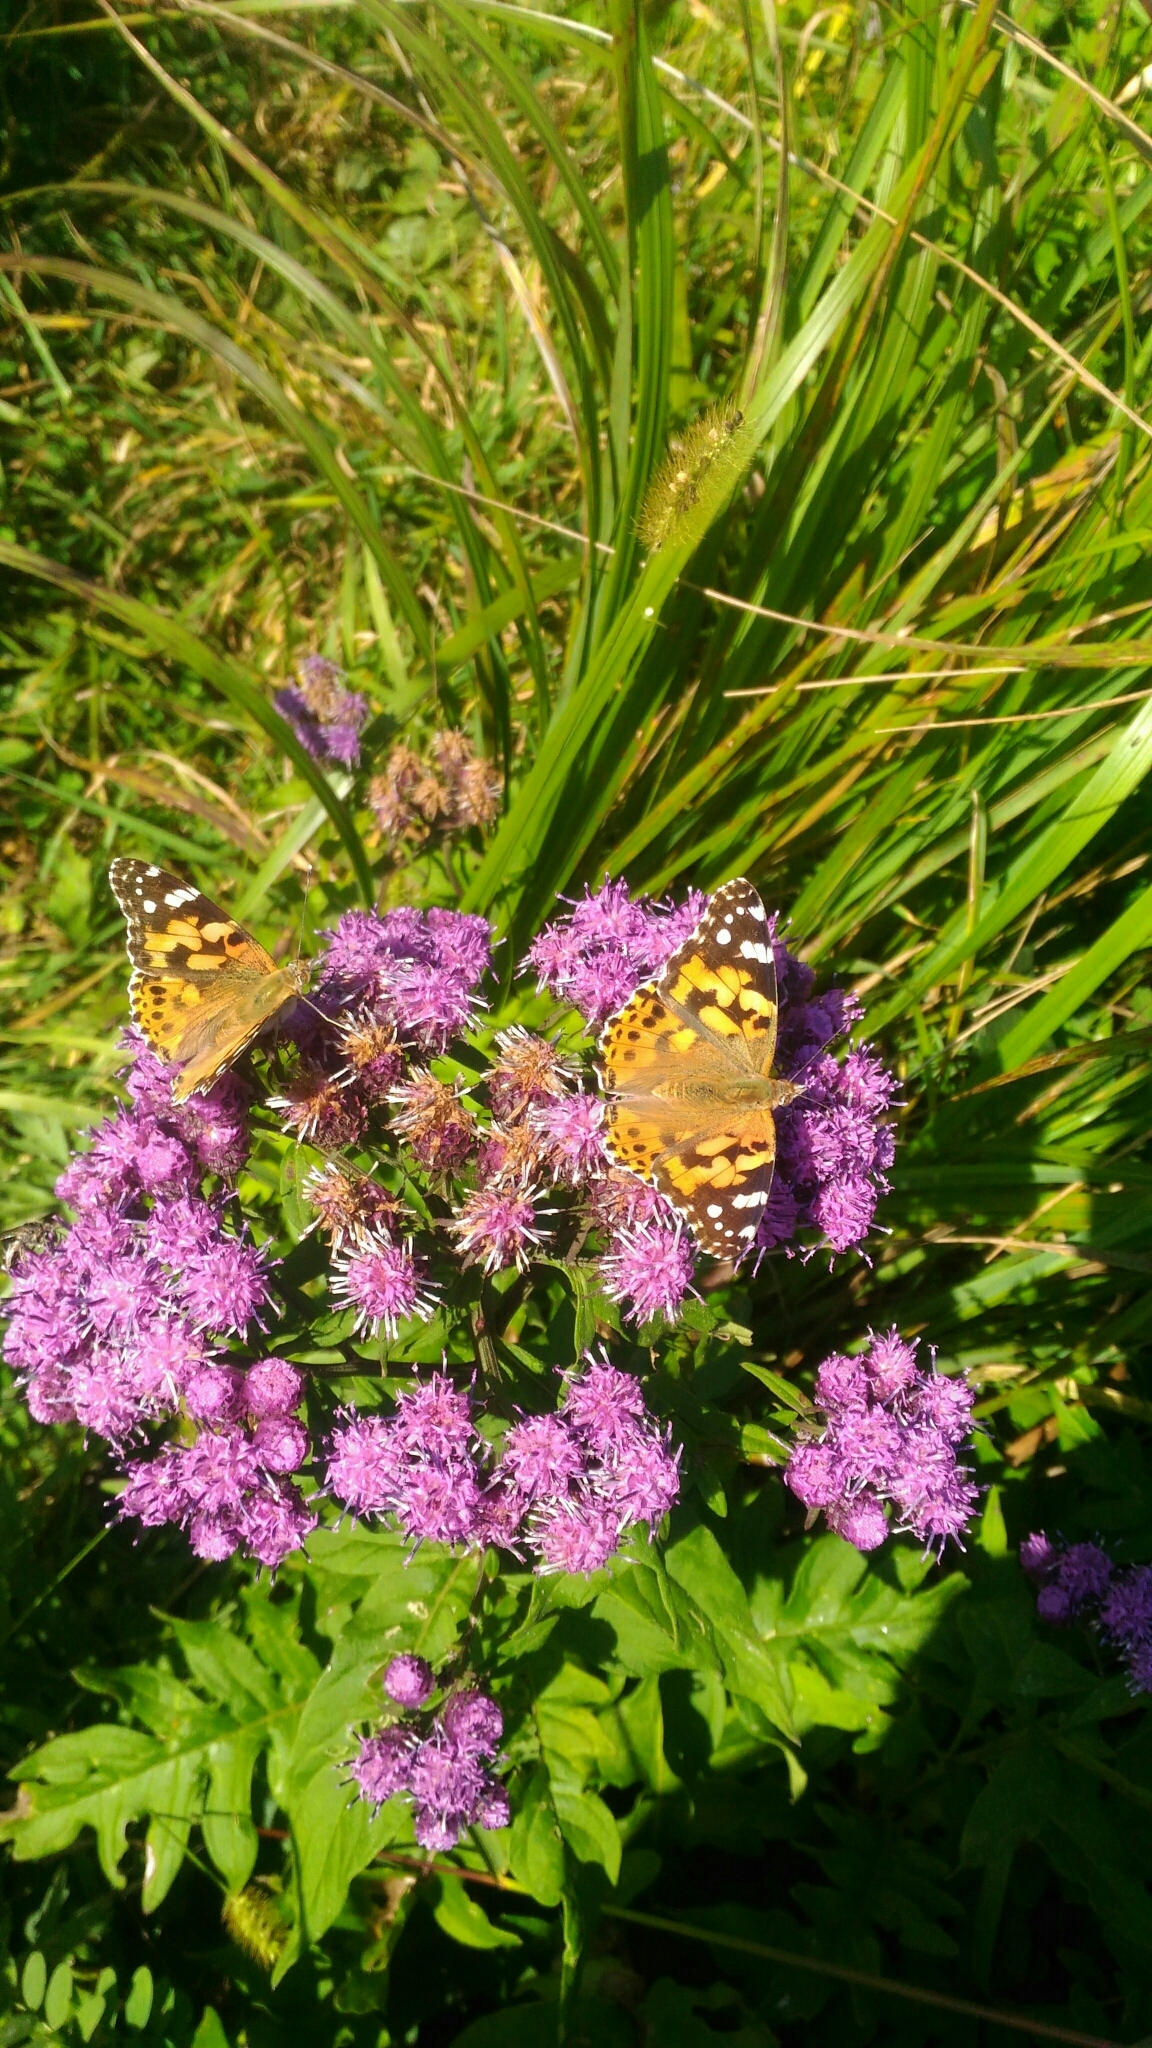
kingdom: Animalia
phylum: Arthropoda
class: Insecta
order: Lepidoptera
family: Nymphalidae
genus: Vanessa
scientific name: Vanessa cardui
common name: Painted lady
